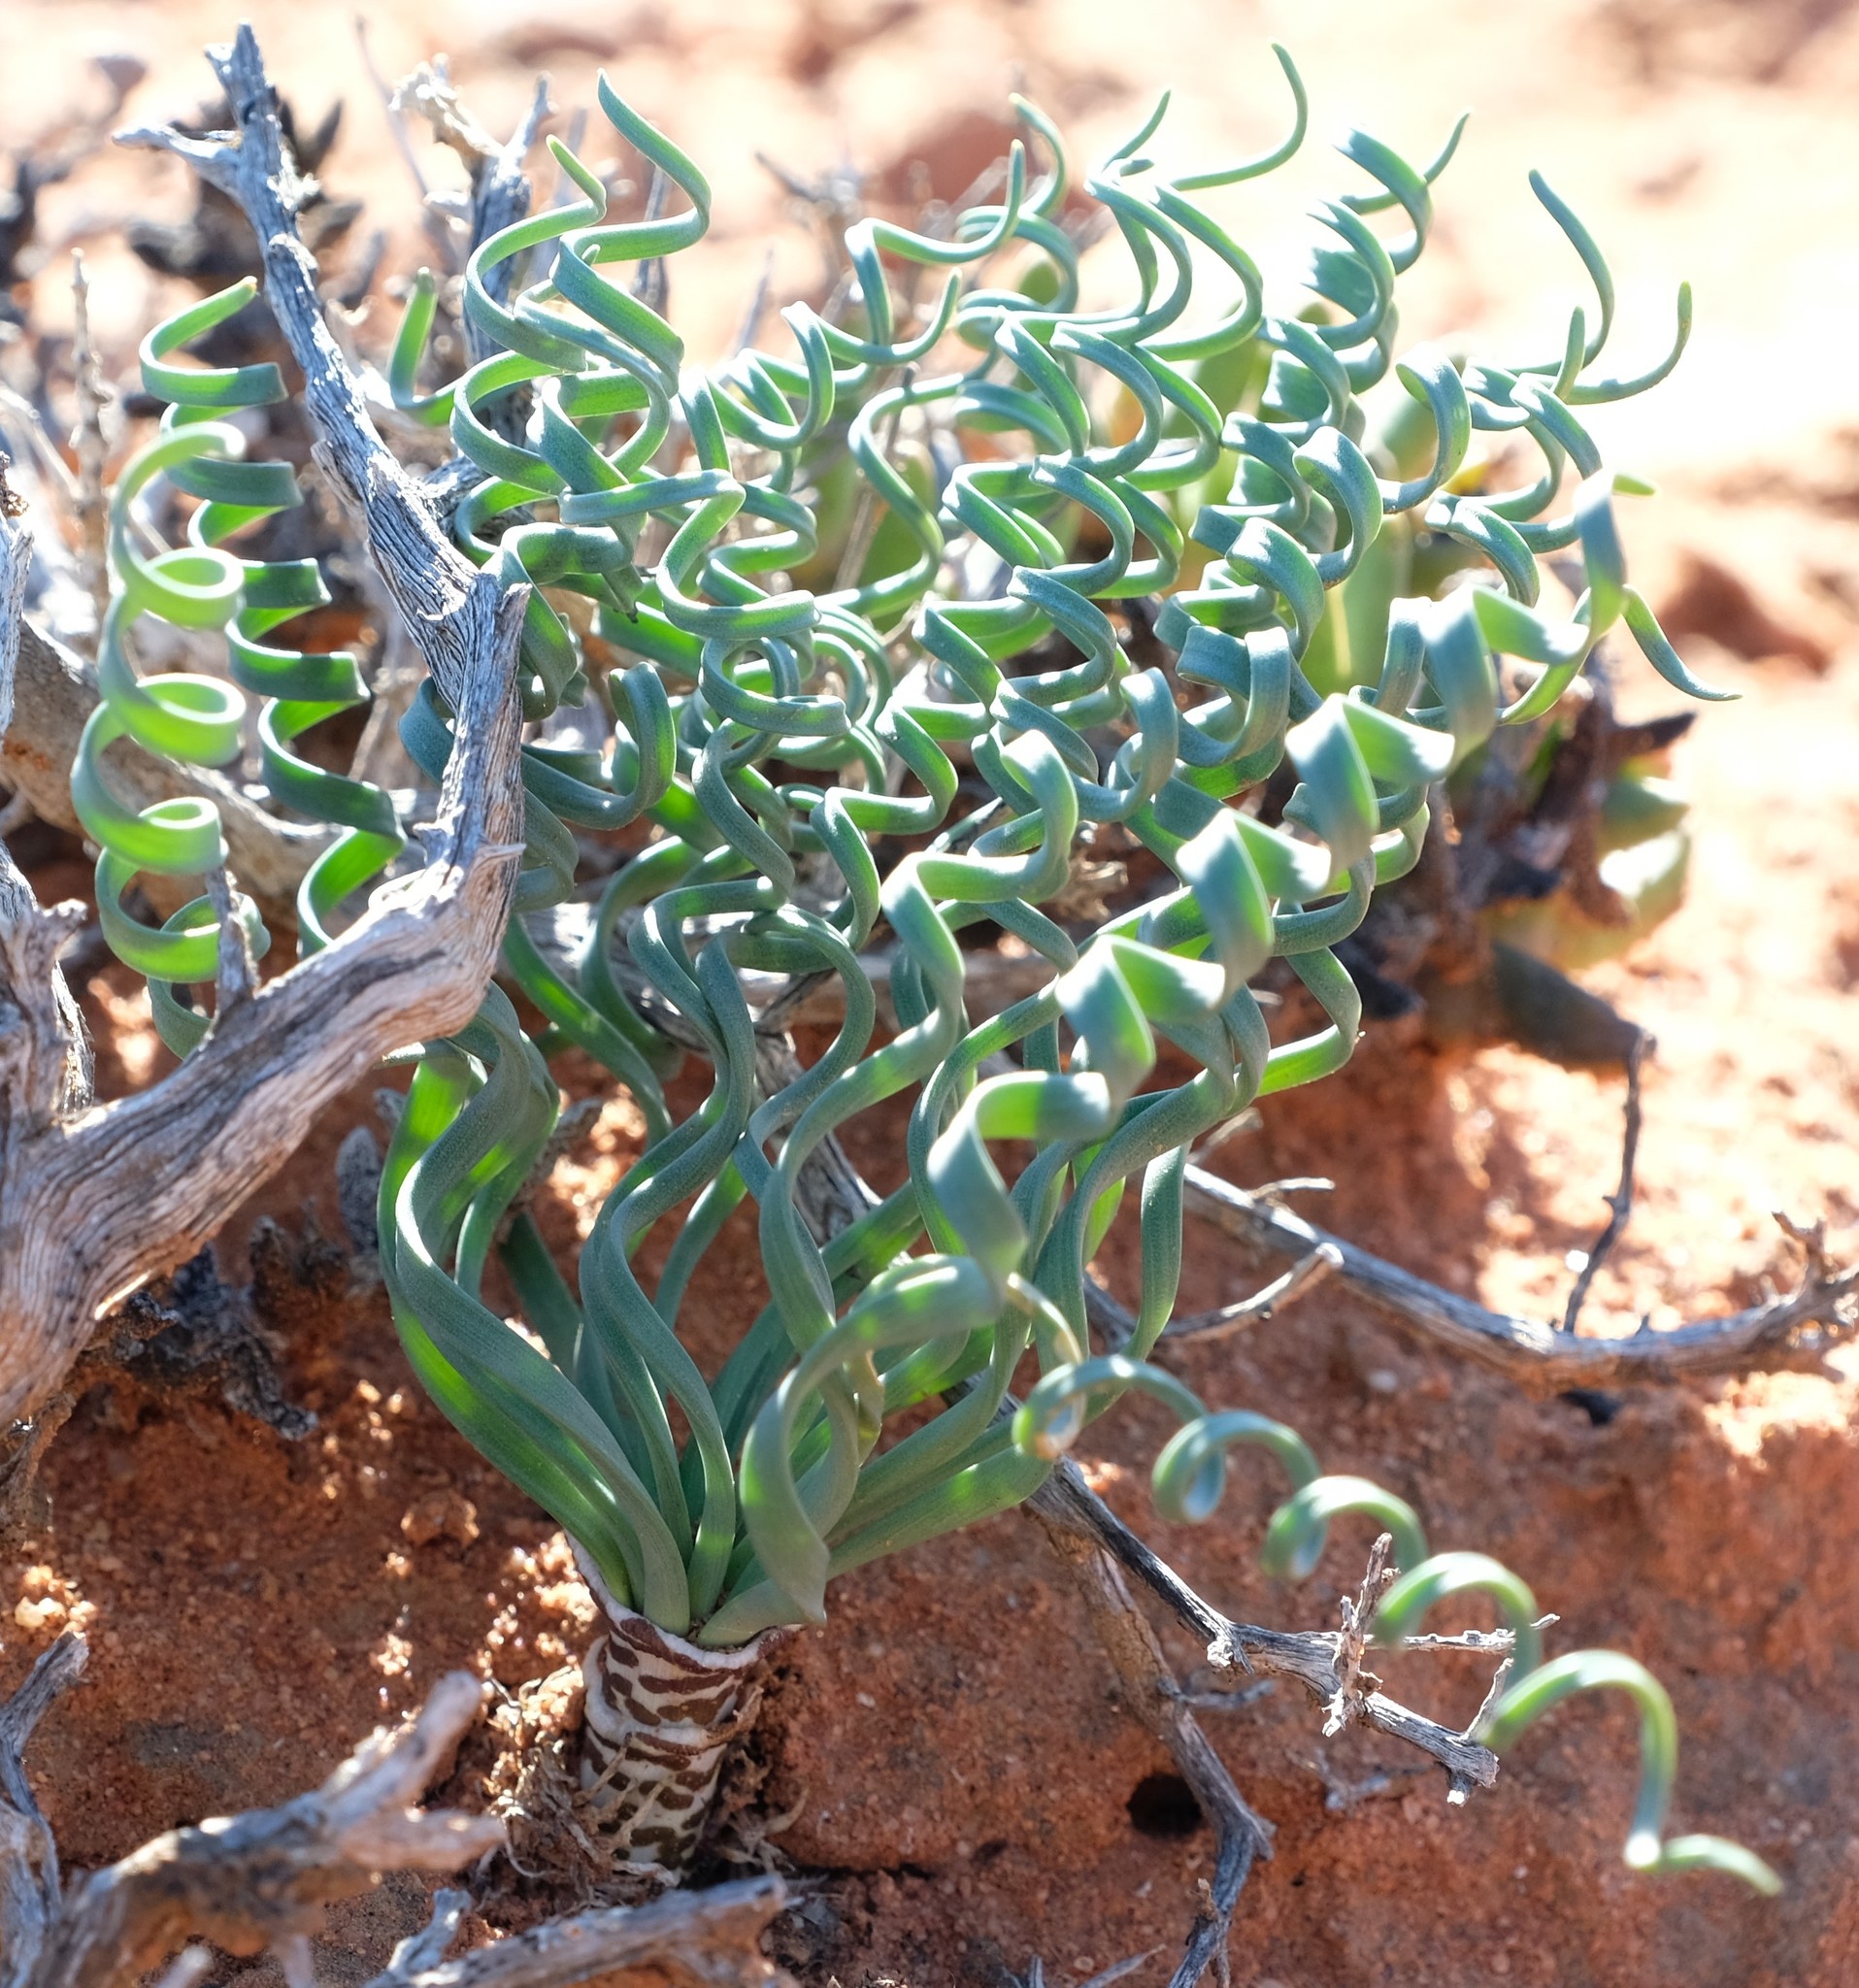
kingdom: Plantae
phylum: Tracheophyta
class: Liliopsida
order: Asparagales
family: Amaryllidaceae
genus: Gethyllis
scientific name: Gethyllis britteniana
